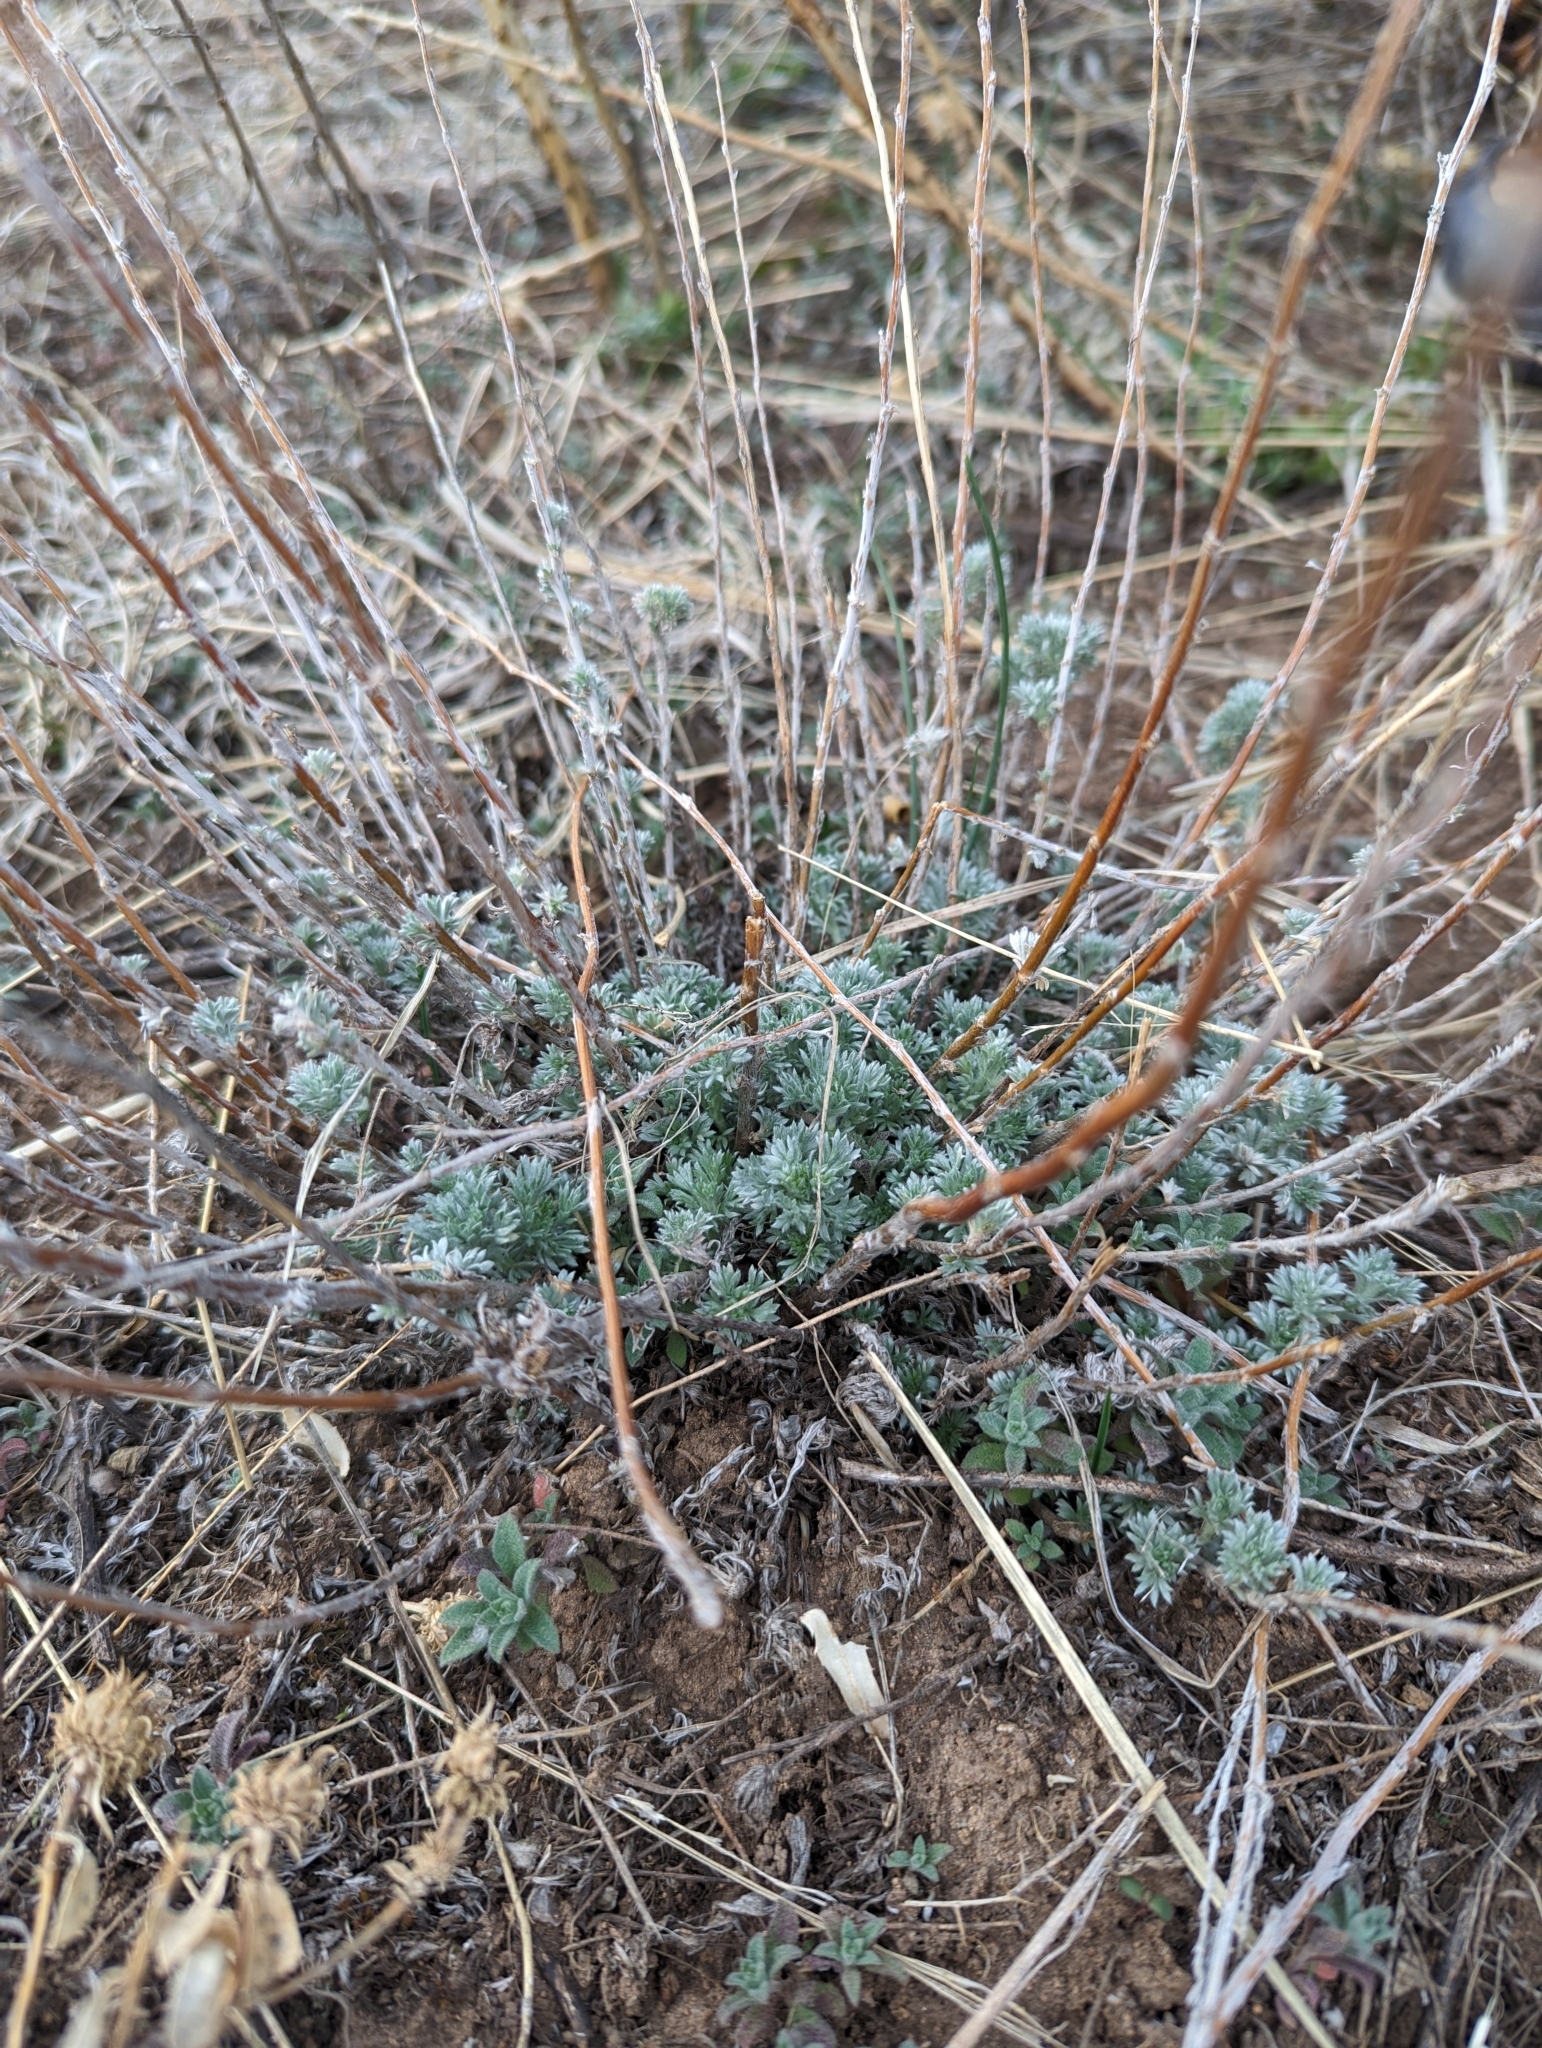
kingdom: Plantae
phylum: Tracheophyta
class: Magnoliopsida
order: Asterales
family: Asteraceae
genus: Artemisia
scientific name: Artemisia frigida
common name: Prairie sagewort
